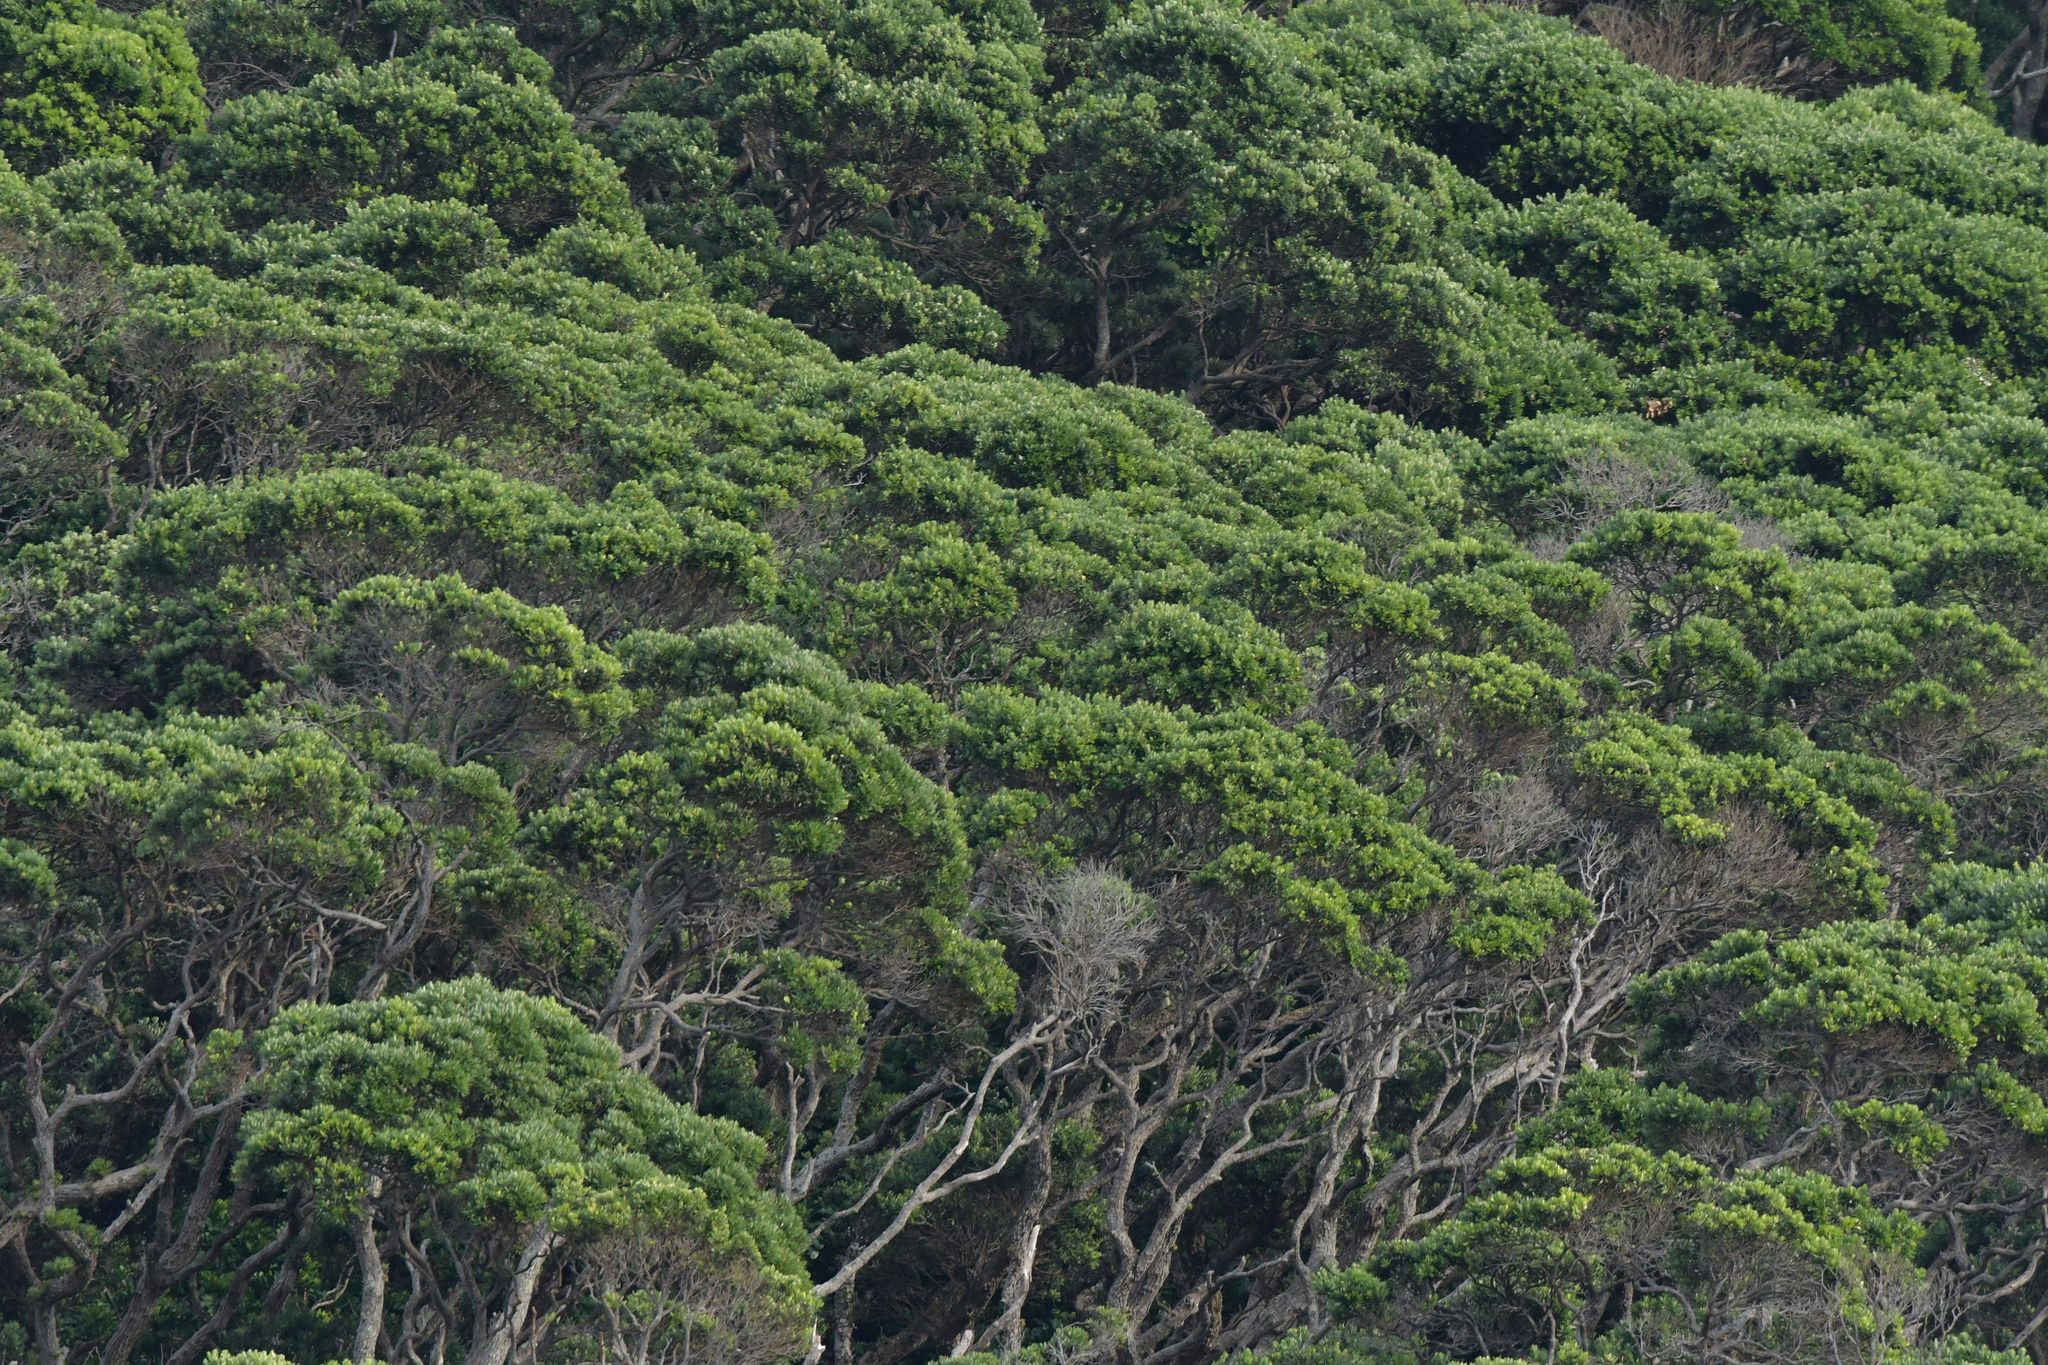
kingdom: Plantae
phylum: Tracheophyta
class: Magnoliopsida
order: Myrtales
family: Myrtaceae
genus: Metrosideros
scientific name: Metrosideros excelsa
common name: New zealand christmastree
